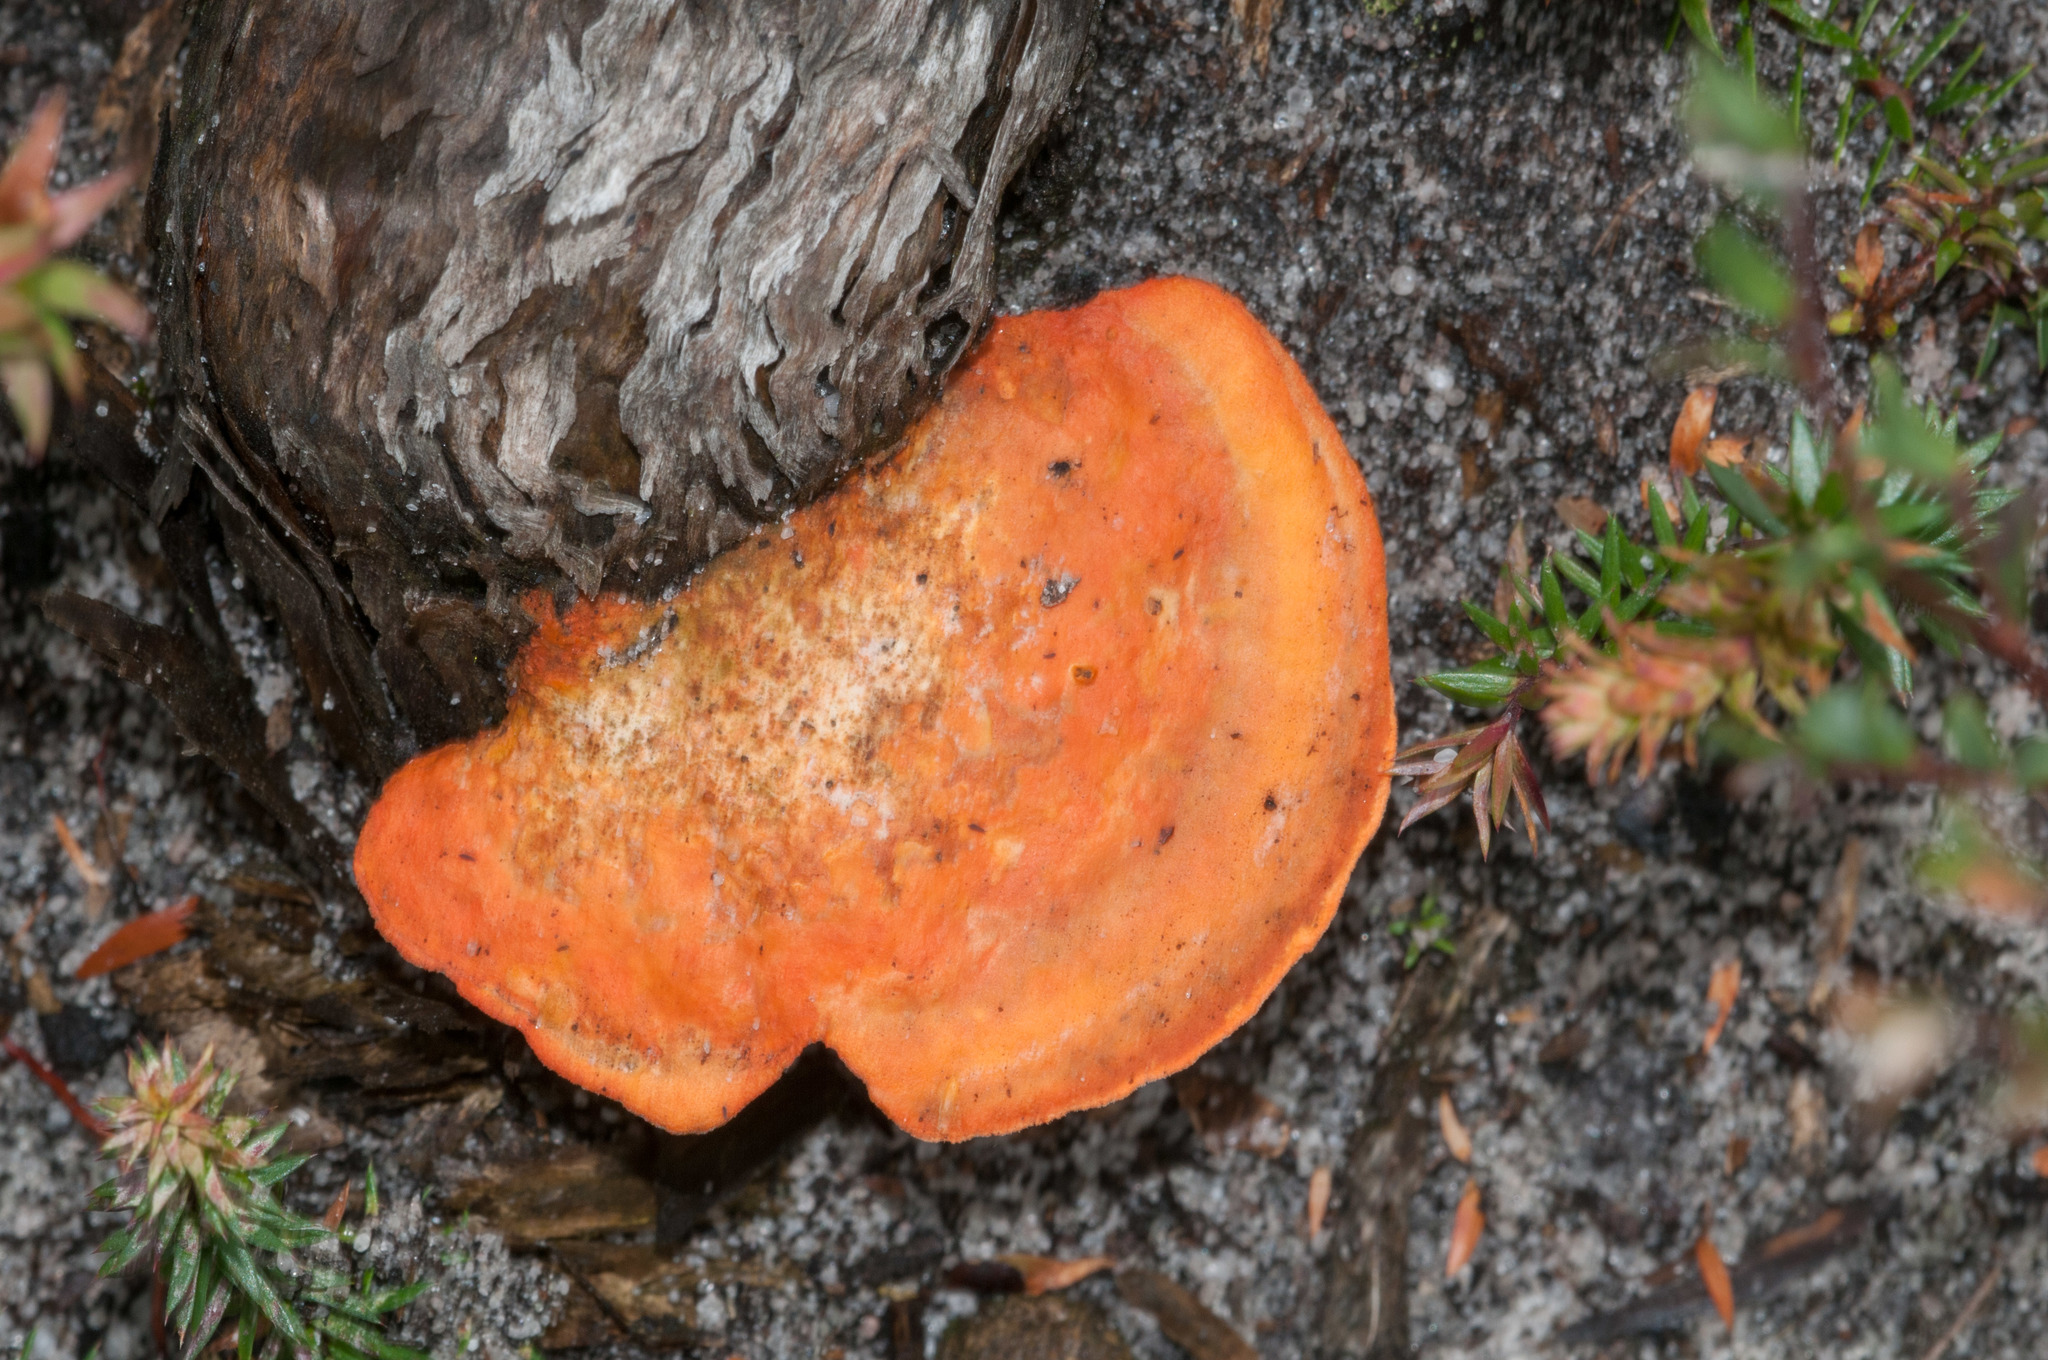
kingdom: Fungi
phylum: Basidiomycota
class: Agaricomycetes
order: Polyporales
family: Polyporaceae
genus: Trametes
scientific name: Trametes coccinea
